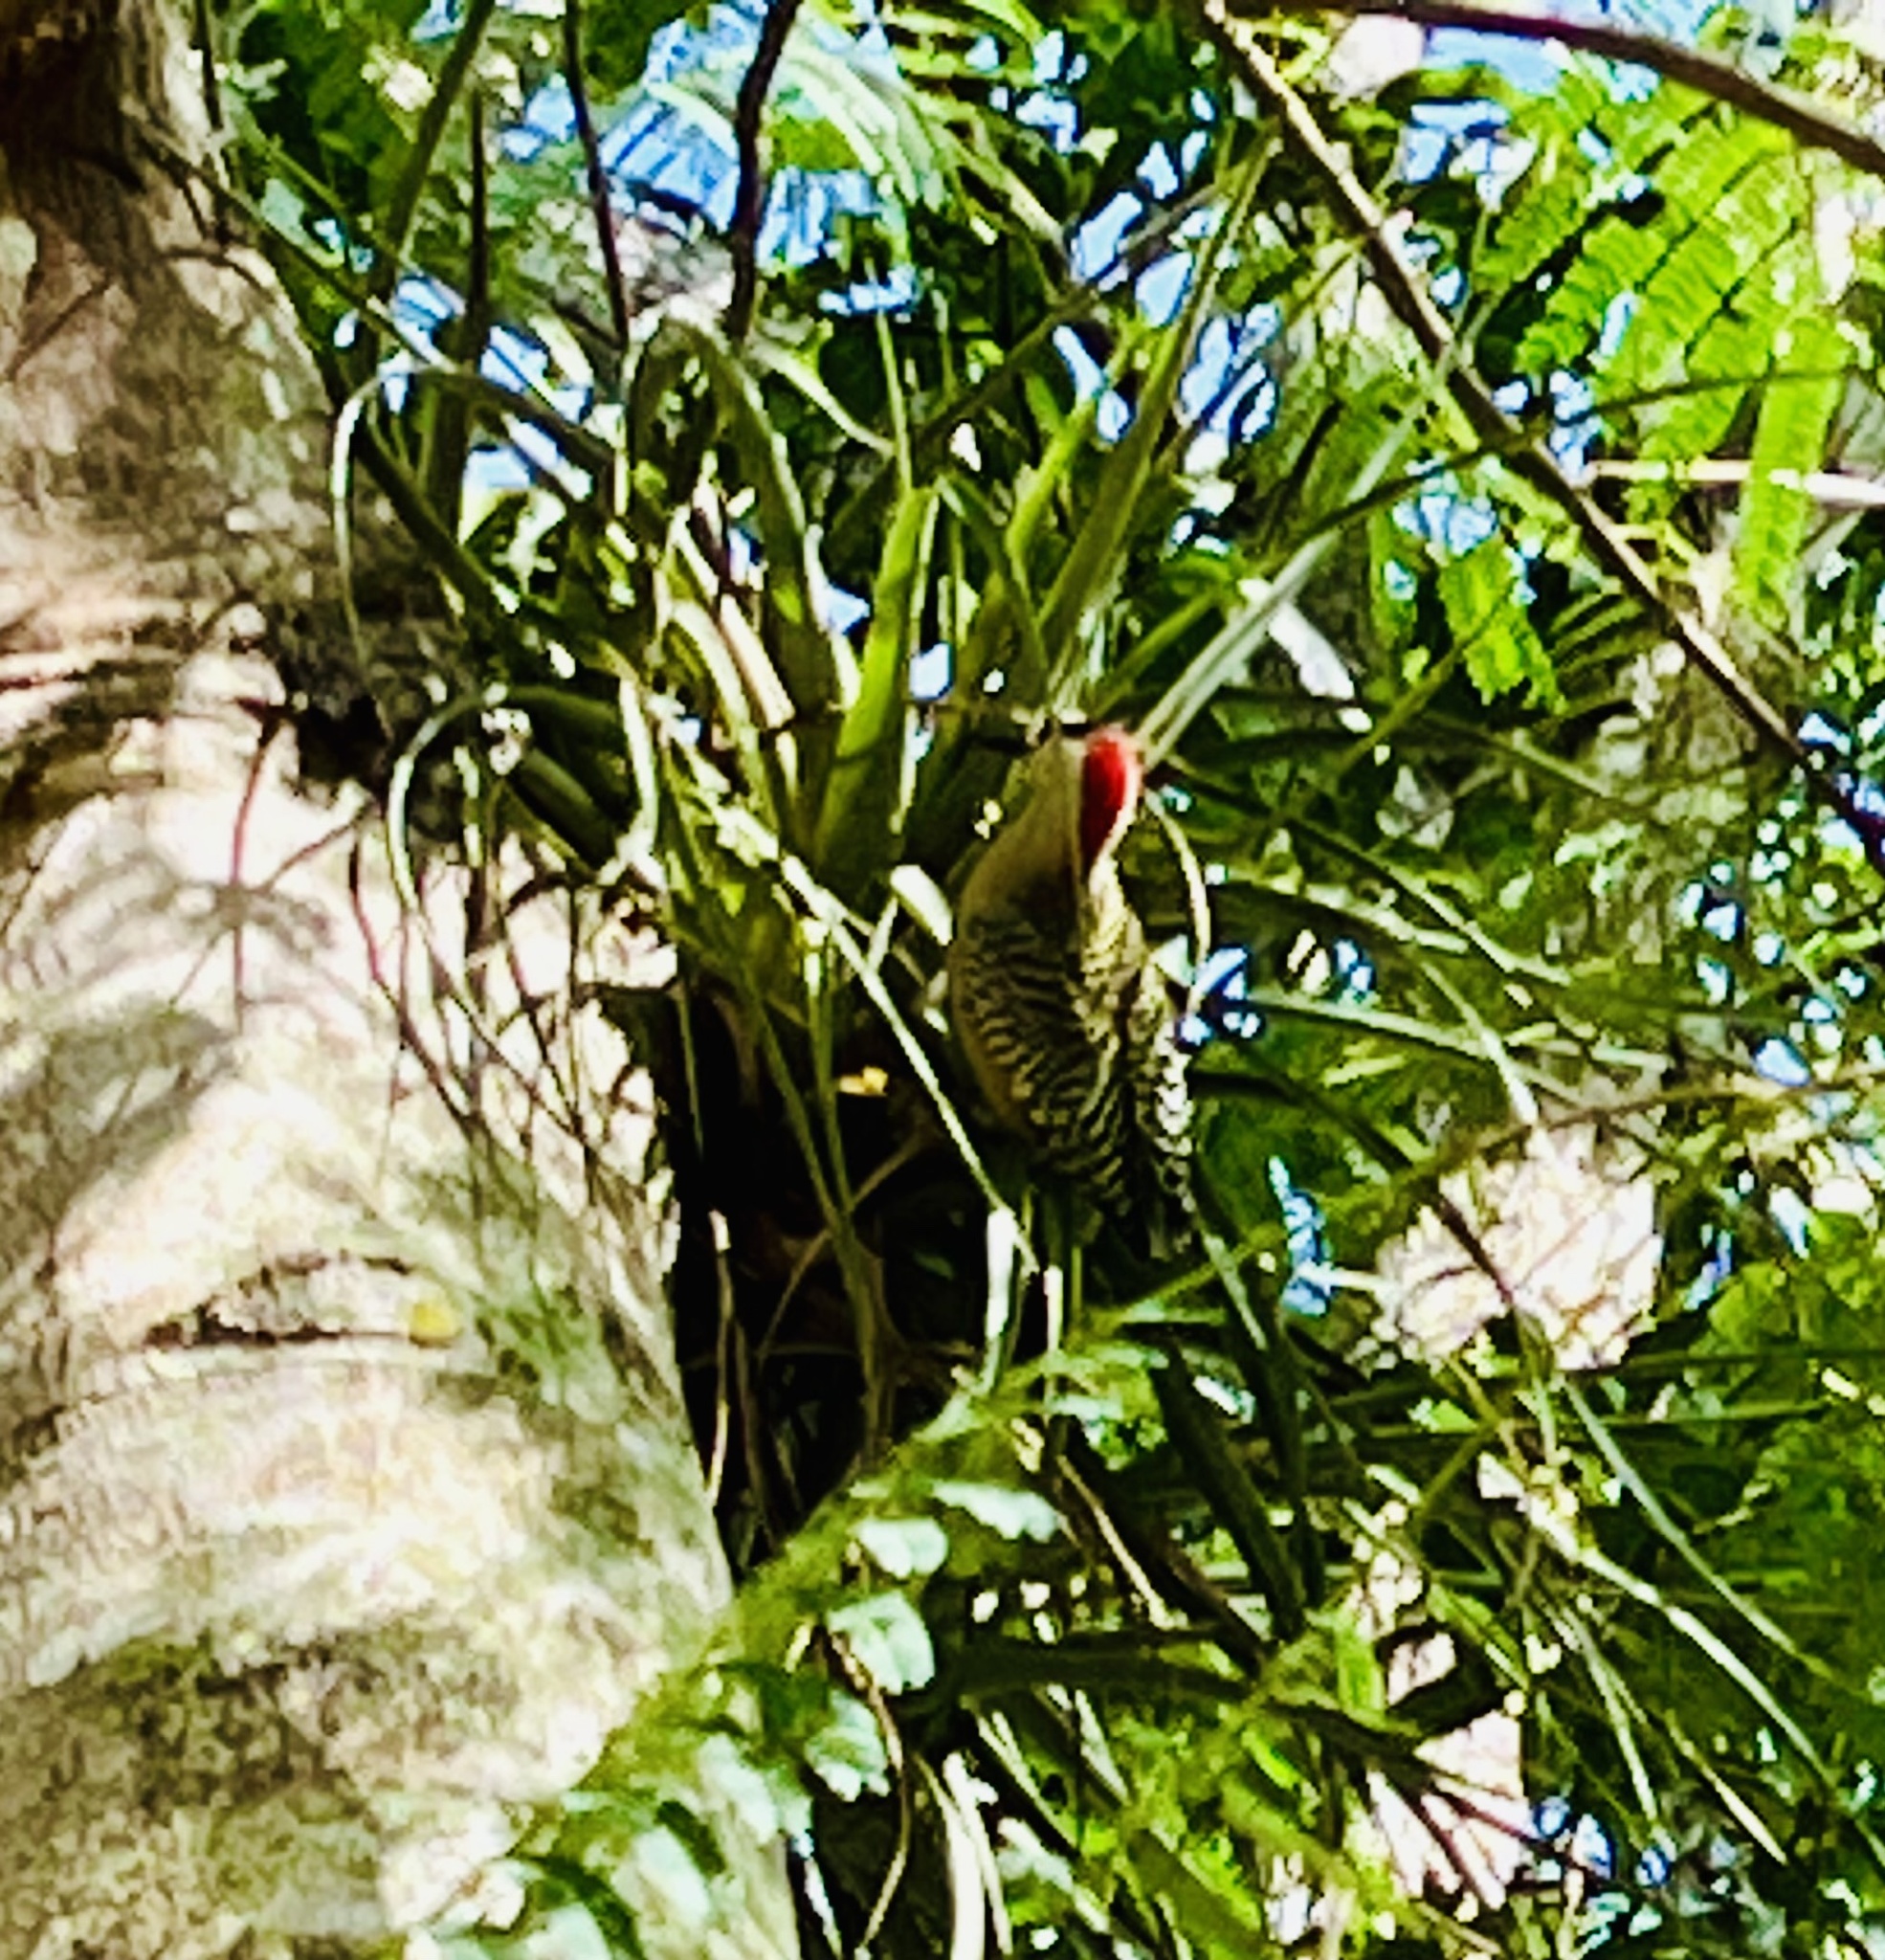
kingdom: Animalia
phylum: Chordata
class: Aves
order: Piciformes
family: Picidae
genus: Melanerpes
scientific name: Melanerpes superciliaris
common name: West indian woodpecker
